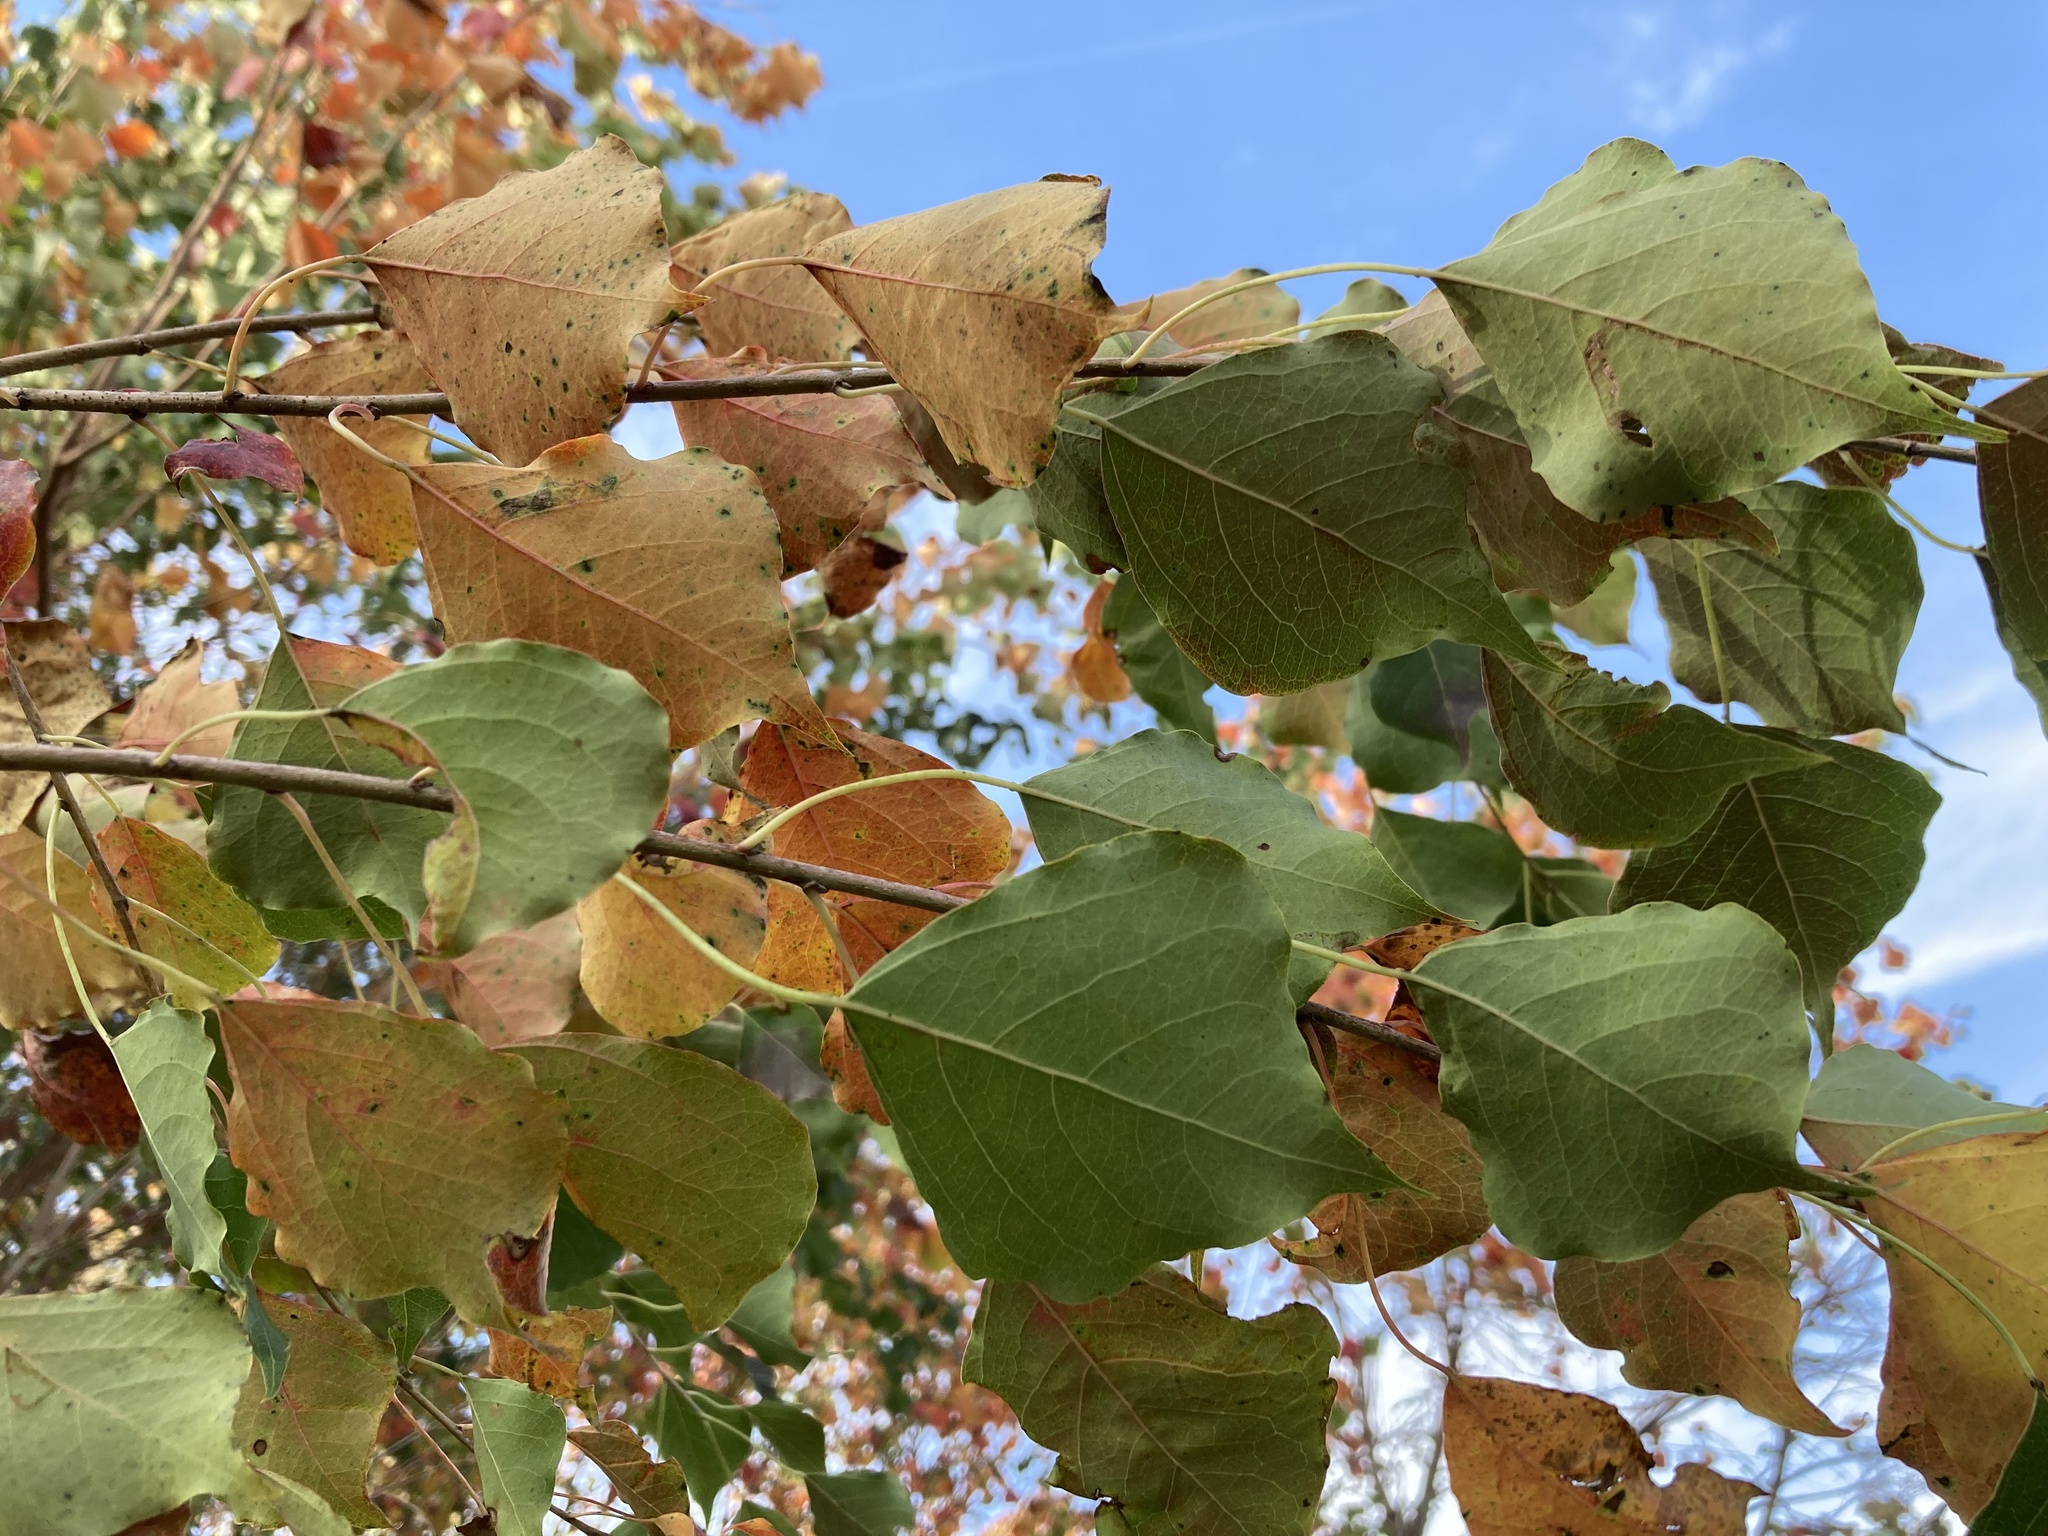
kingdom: Plantae
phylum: Tracheophyta
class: Magnoliopsida
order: Malpighiales
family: Euphorbiaceae
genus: Triadica
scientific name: Triadica sebifera
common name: Chinese tallow
